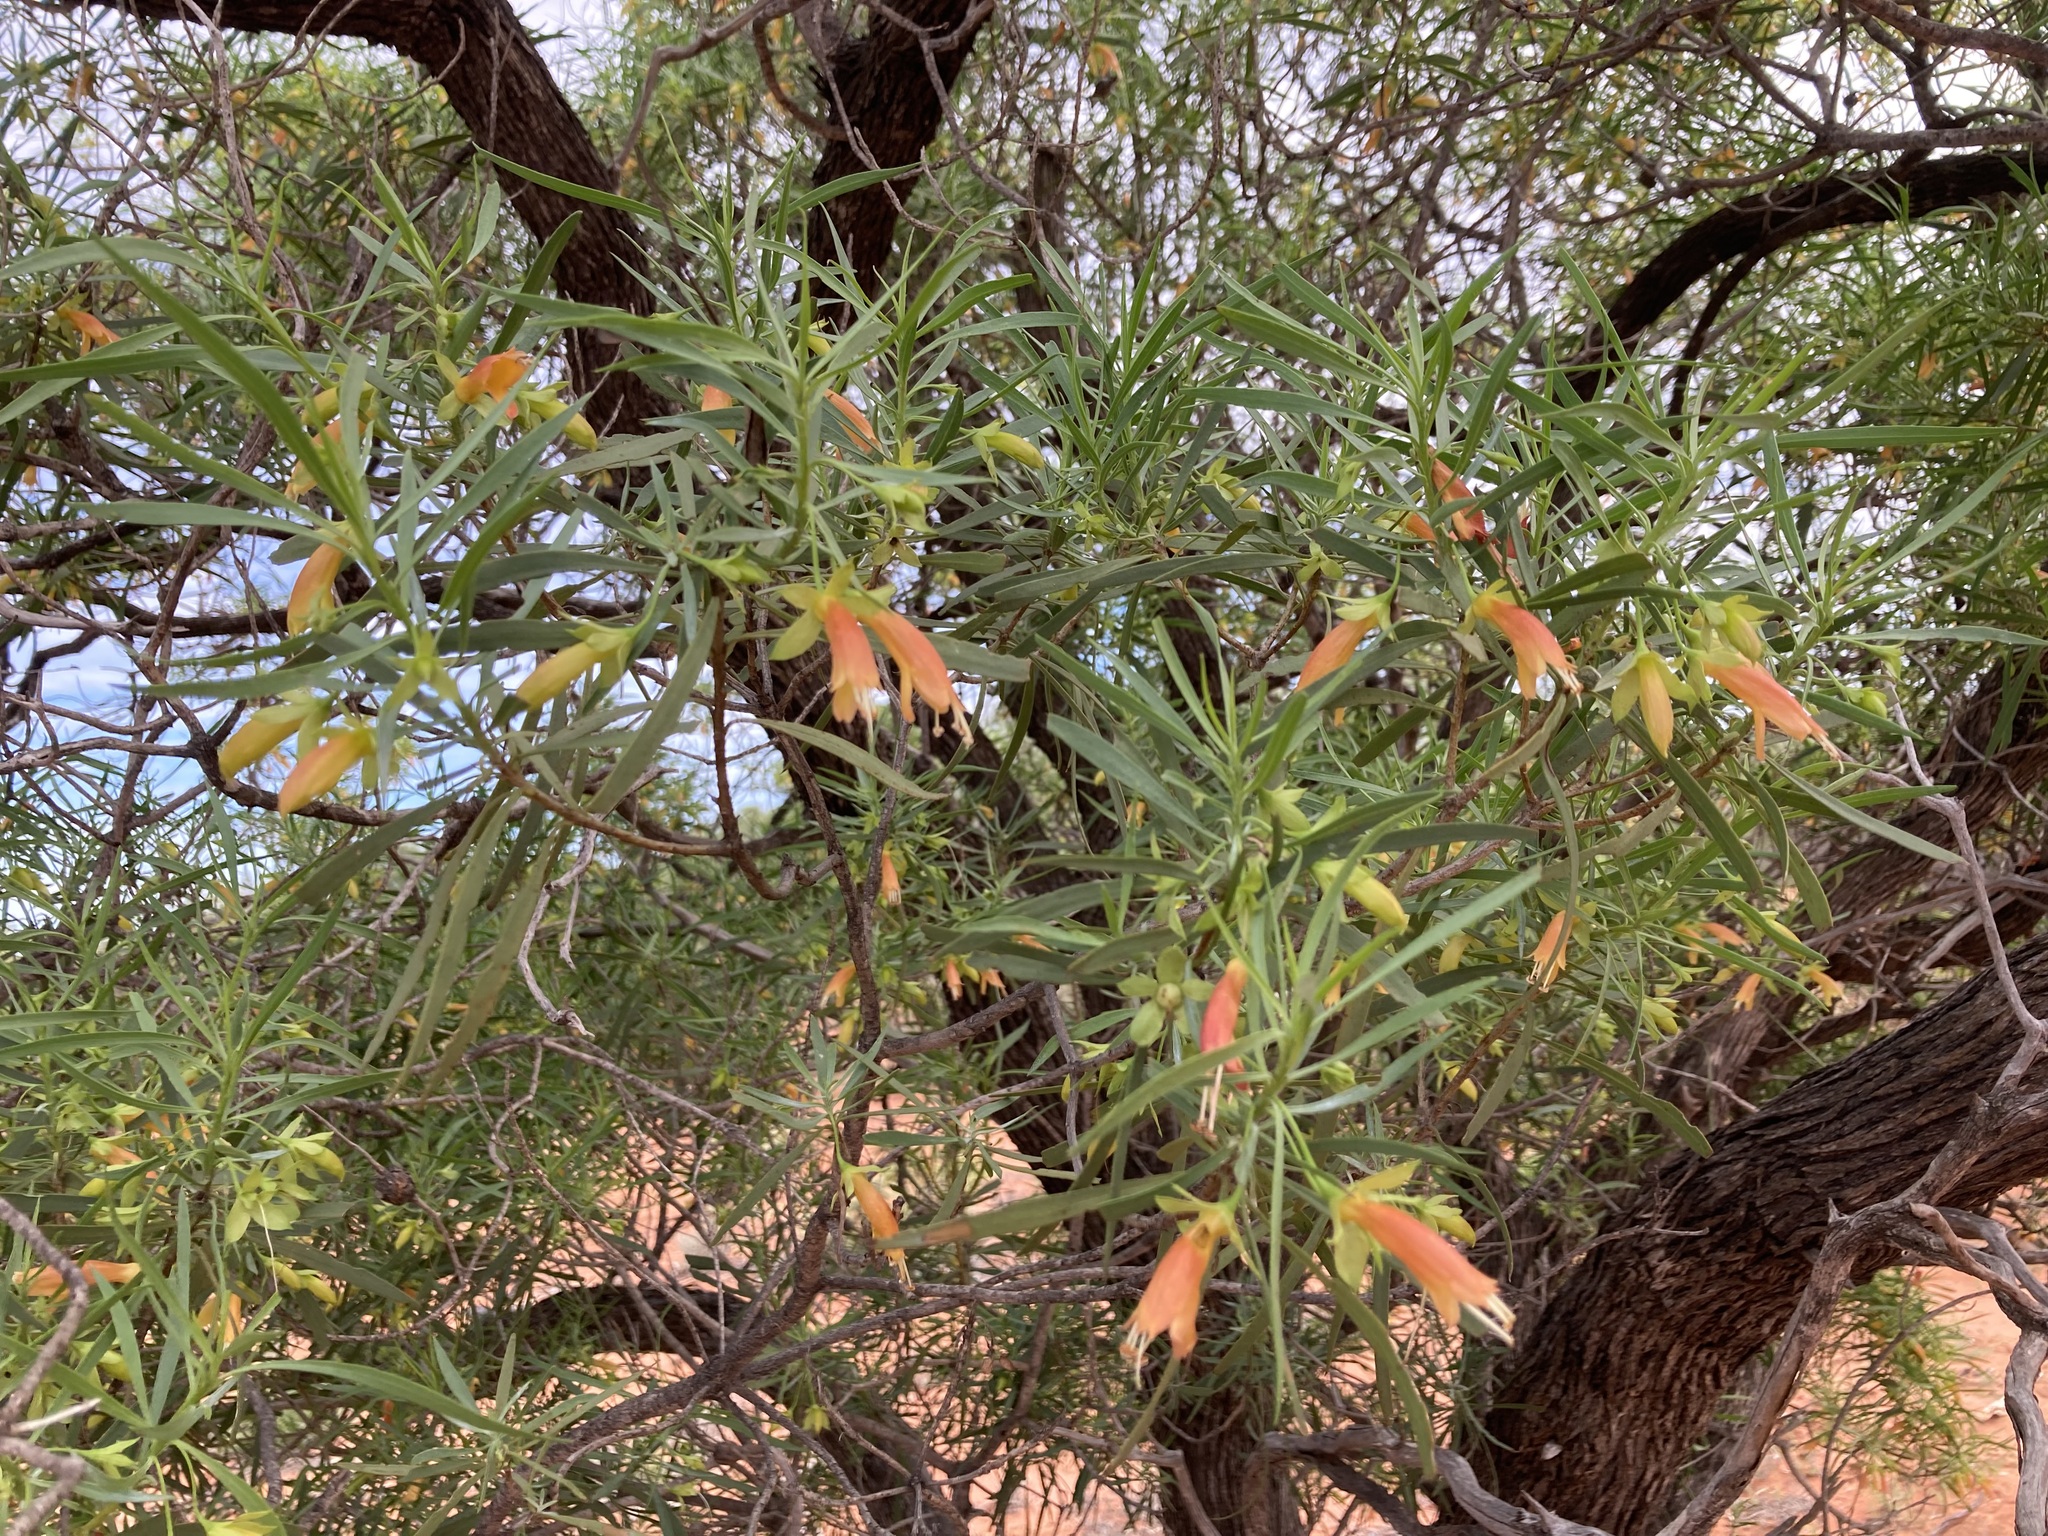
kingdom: Plantae
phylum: Tracheophyta
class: Magnoliopsida
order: Lamiales
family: Scrophulariaceae
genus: Eremophila
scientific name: Eremophila oldfieldii
